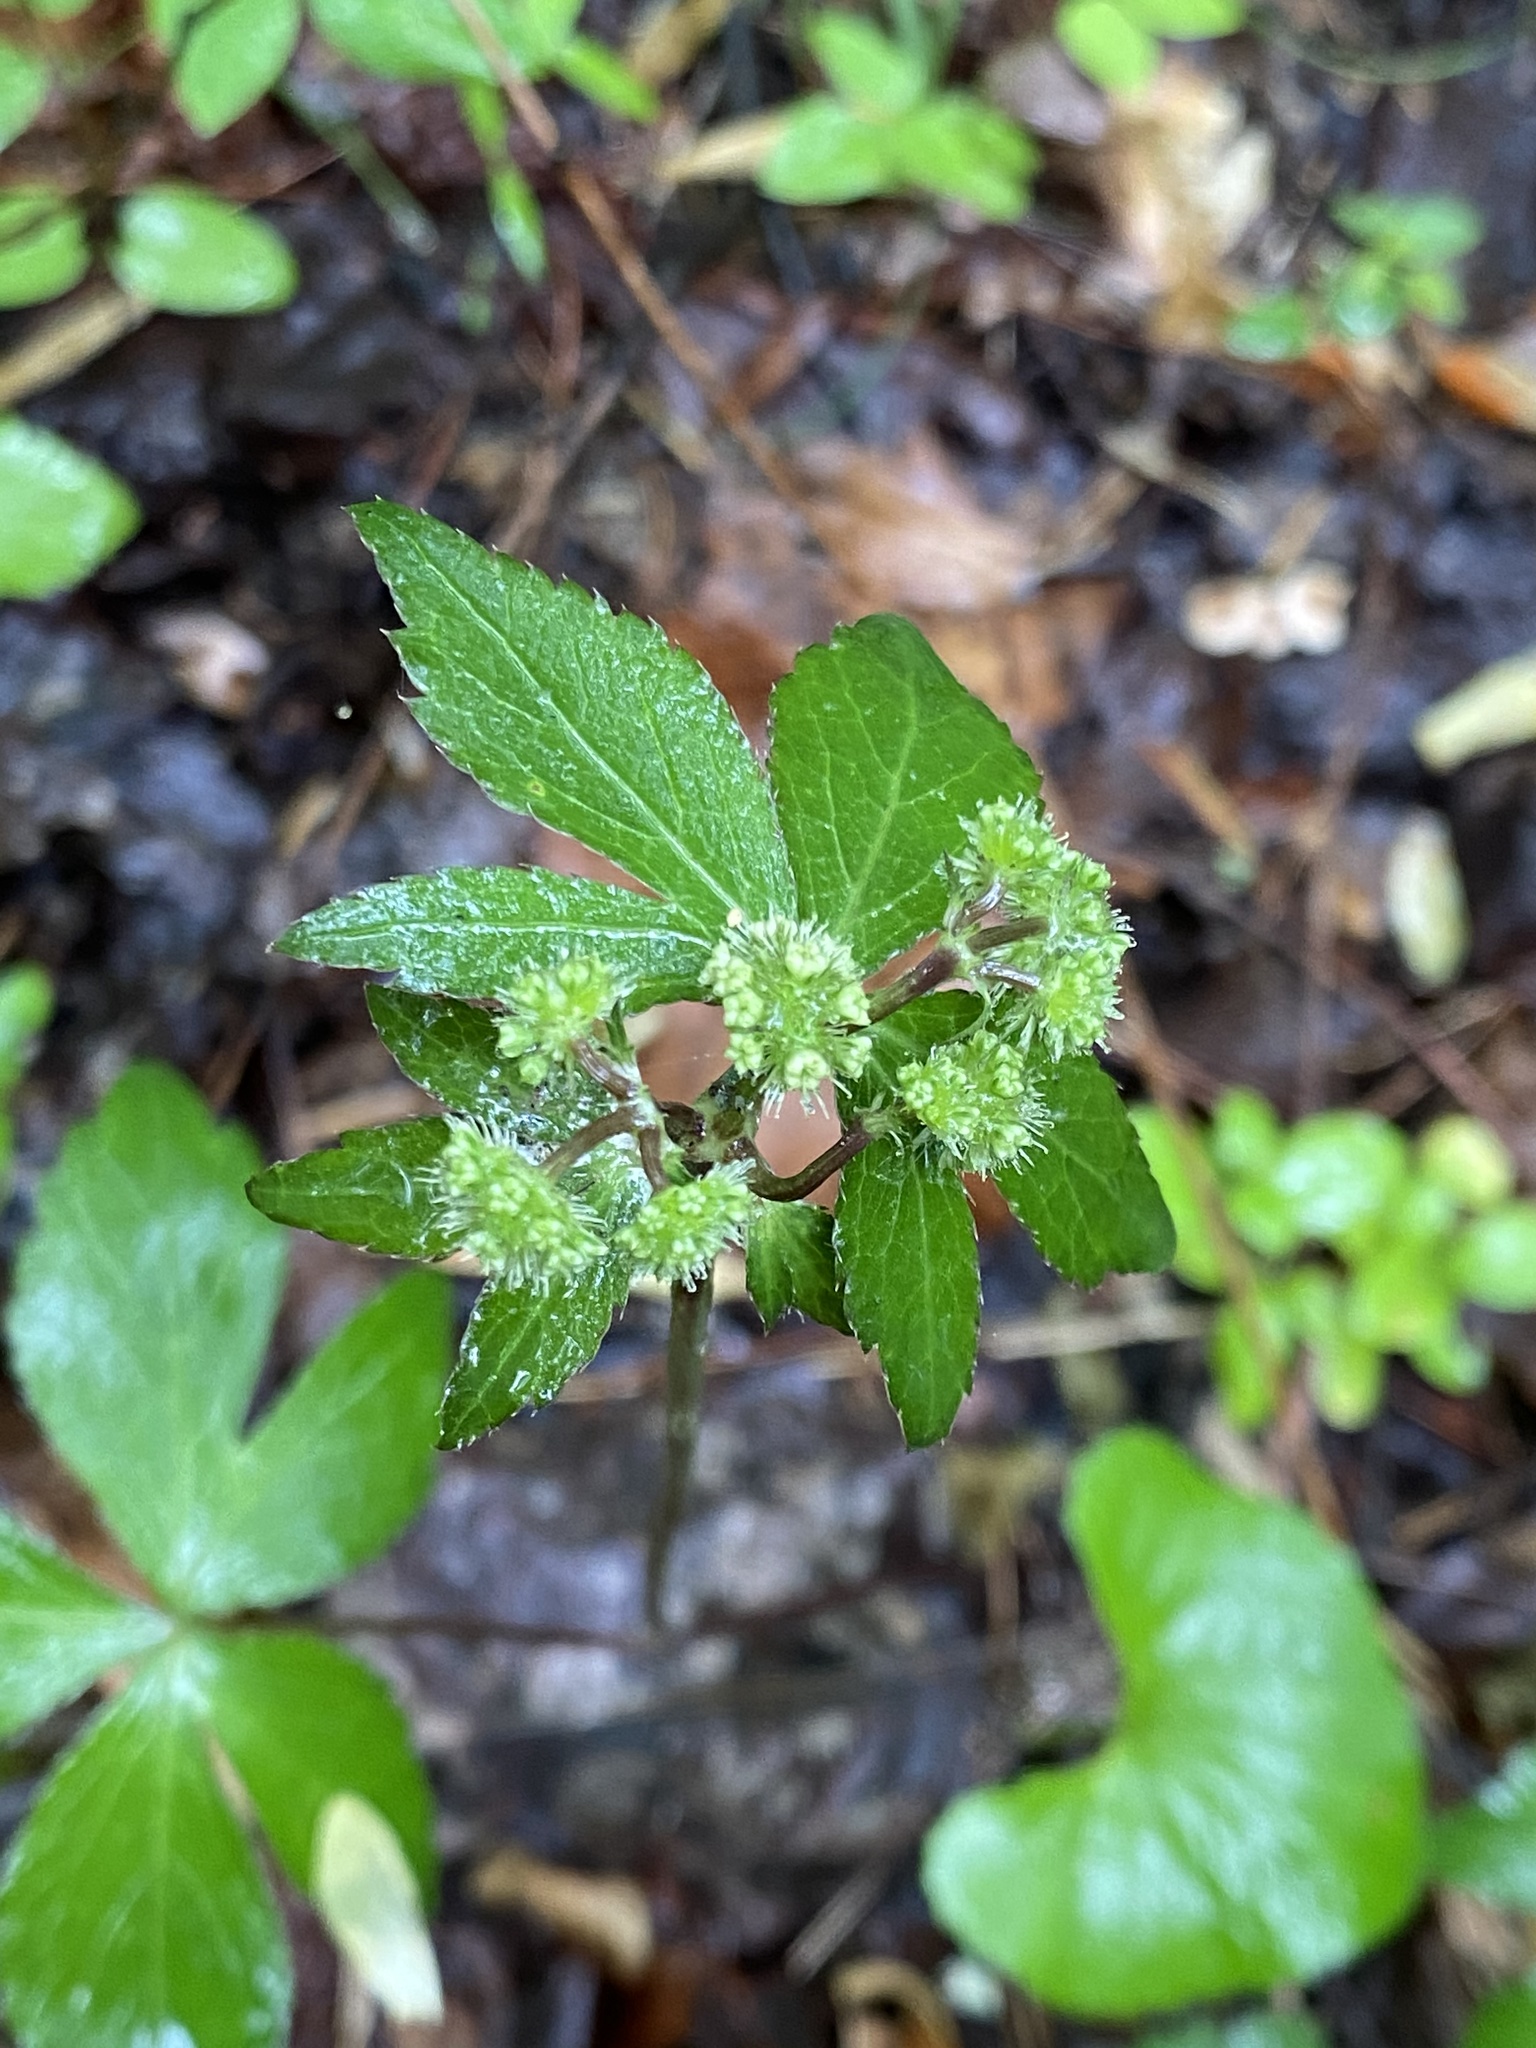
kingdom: Plantae
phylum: Tracheophyta
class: Magnoliopsida
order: Apiales
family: Apiaceae
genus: Sanicula
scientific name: Sanicula smallii
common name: Small's black snakeroot
